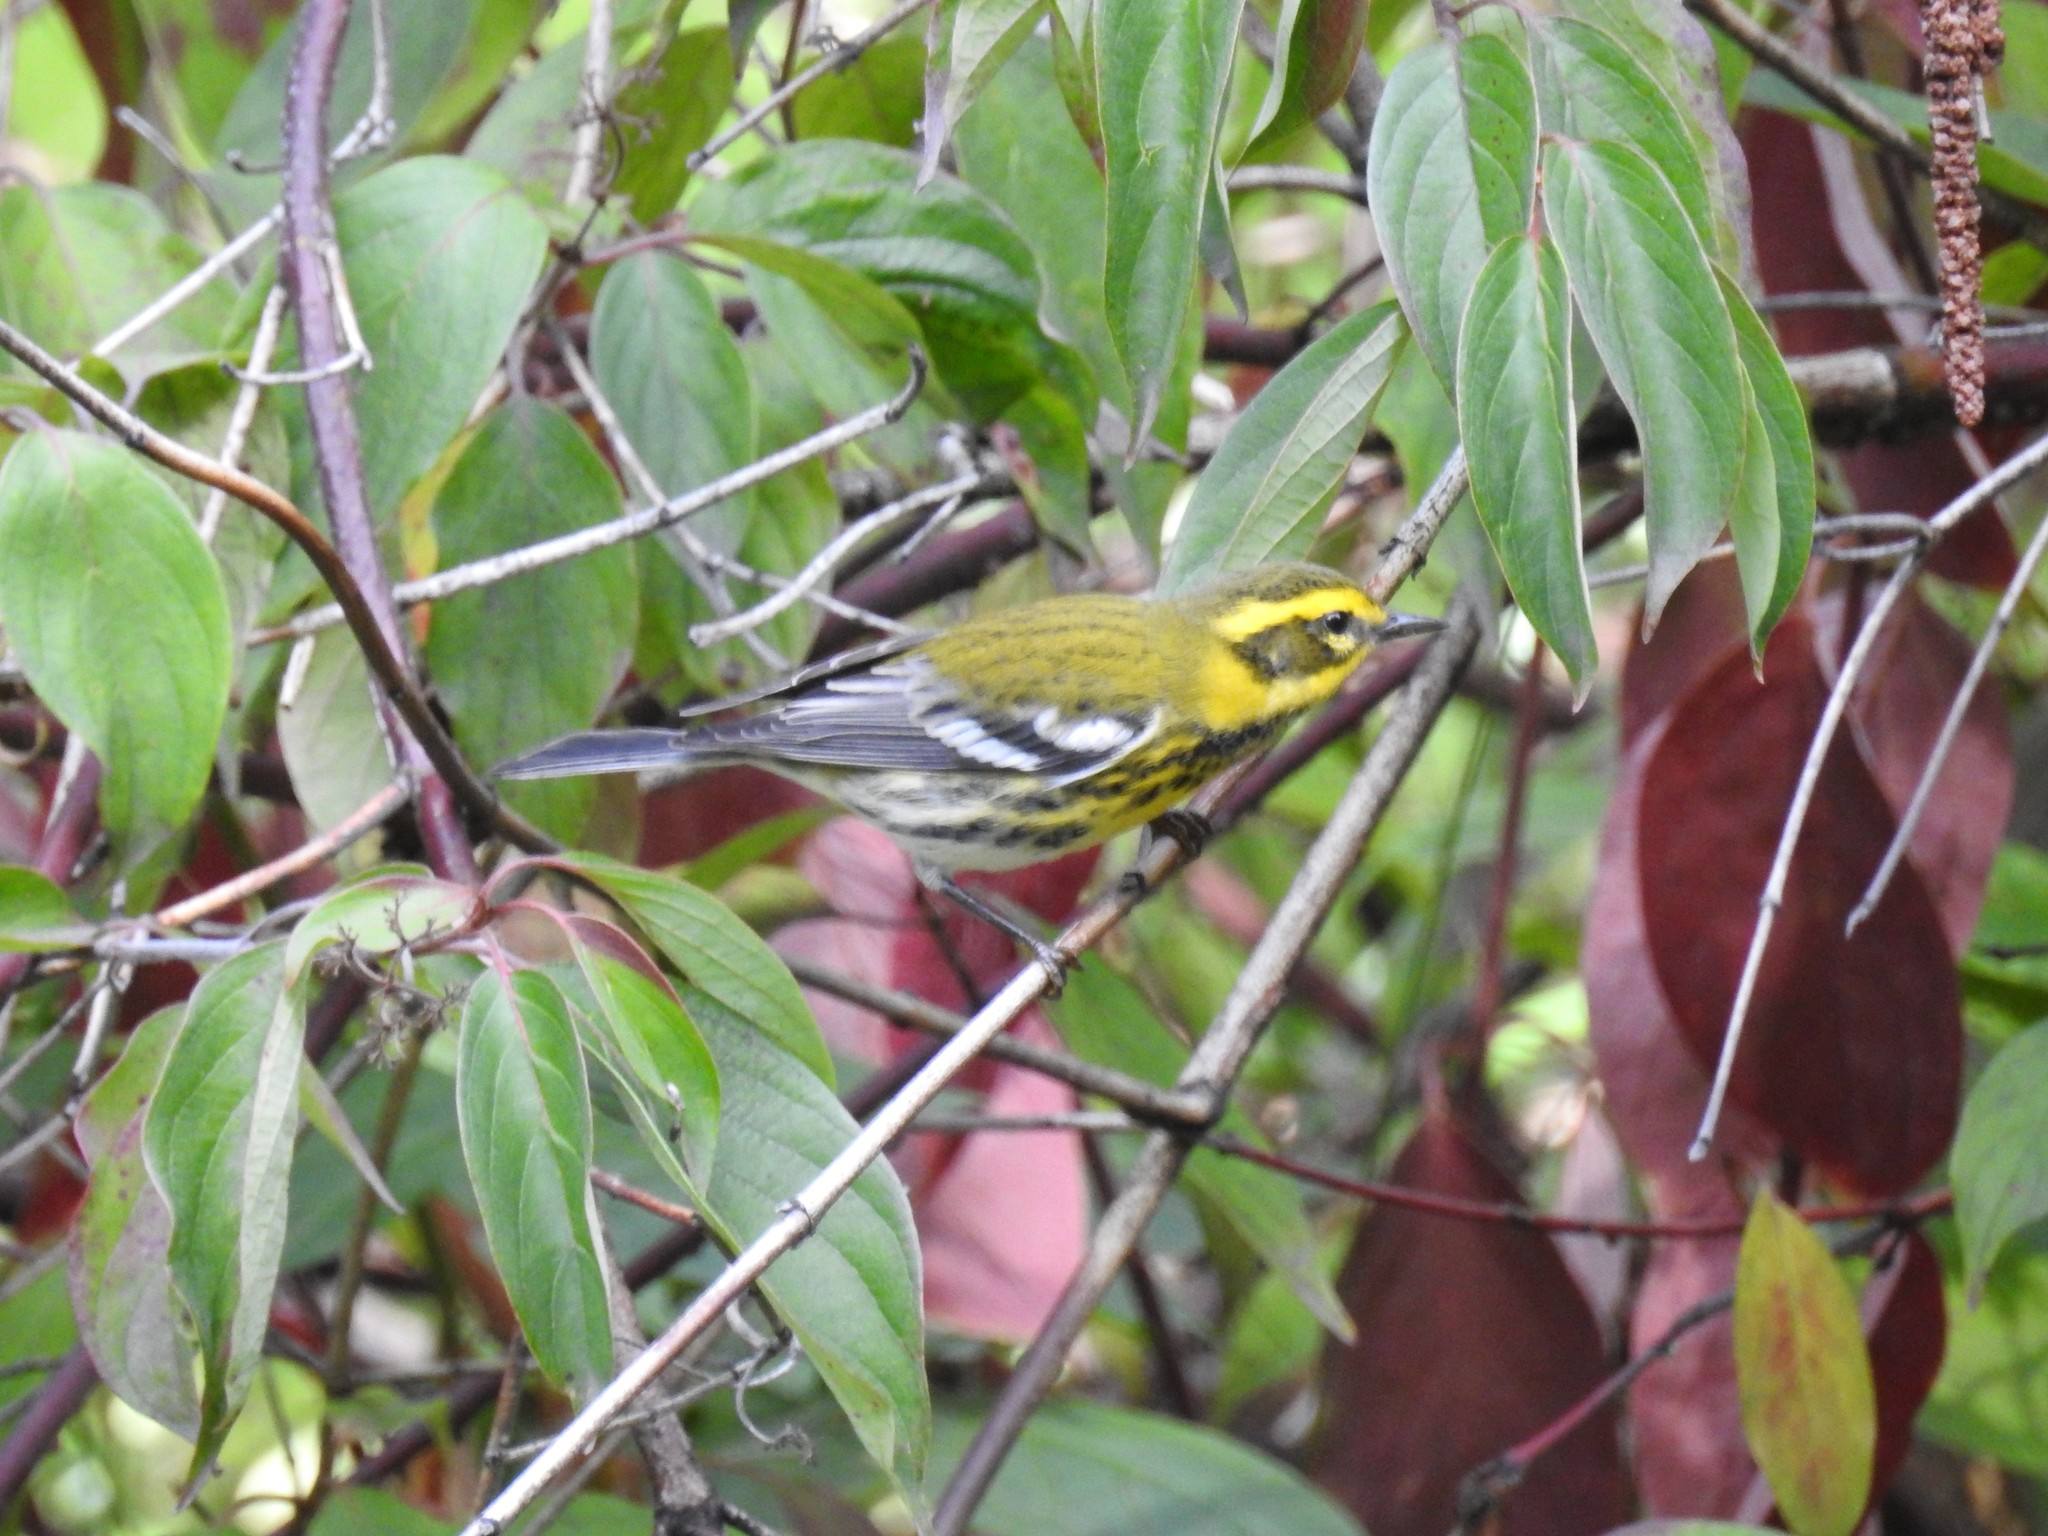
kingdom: Animalia
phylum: Chordata
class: Aves
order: Passeriformes
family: Parulidae
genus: Setophaga
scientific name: Setophaga townsendi
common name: Townsend's warbler
